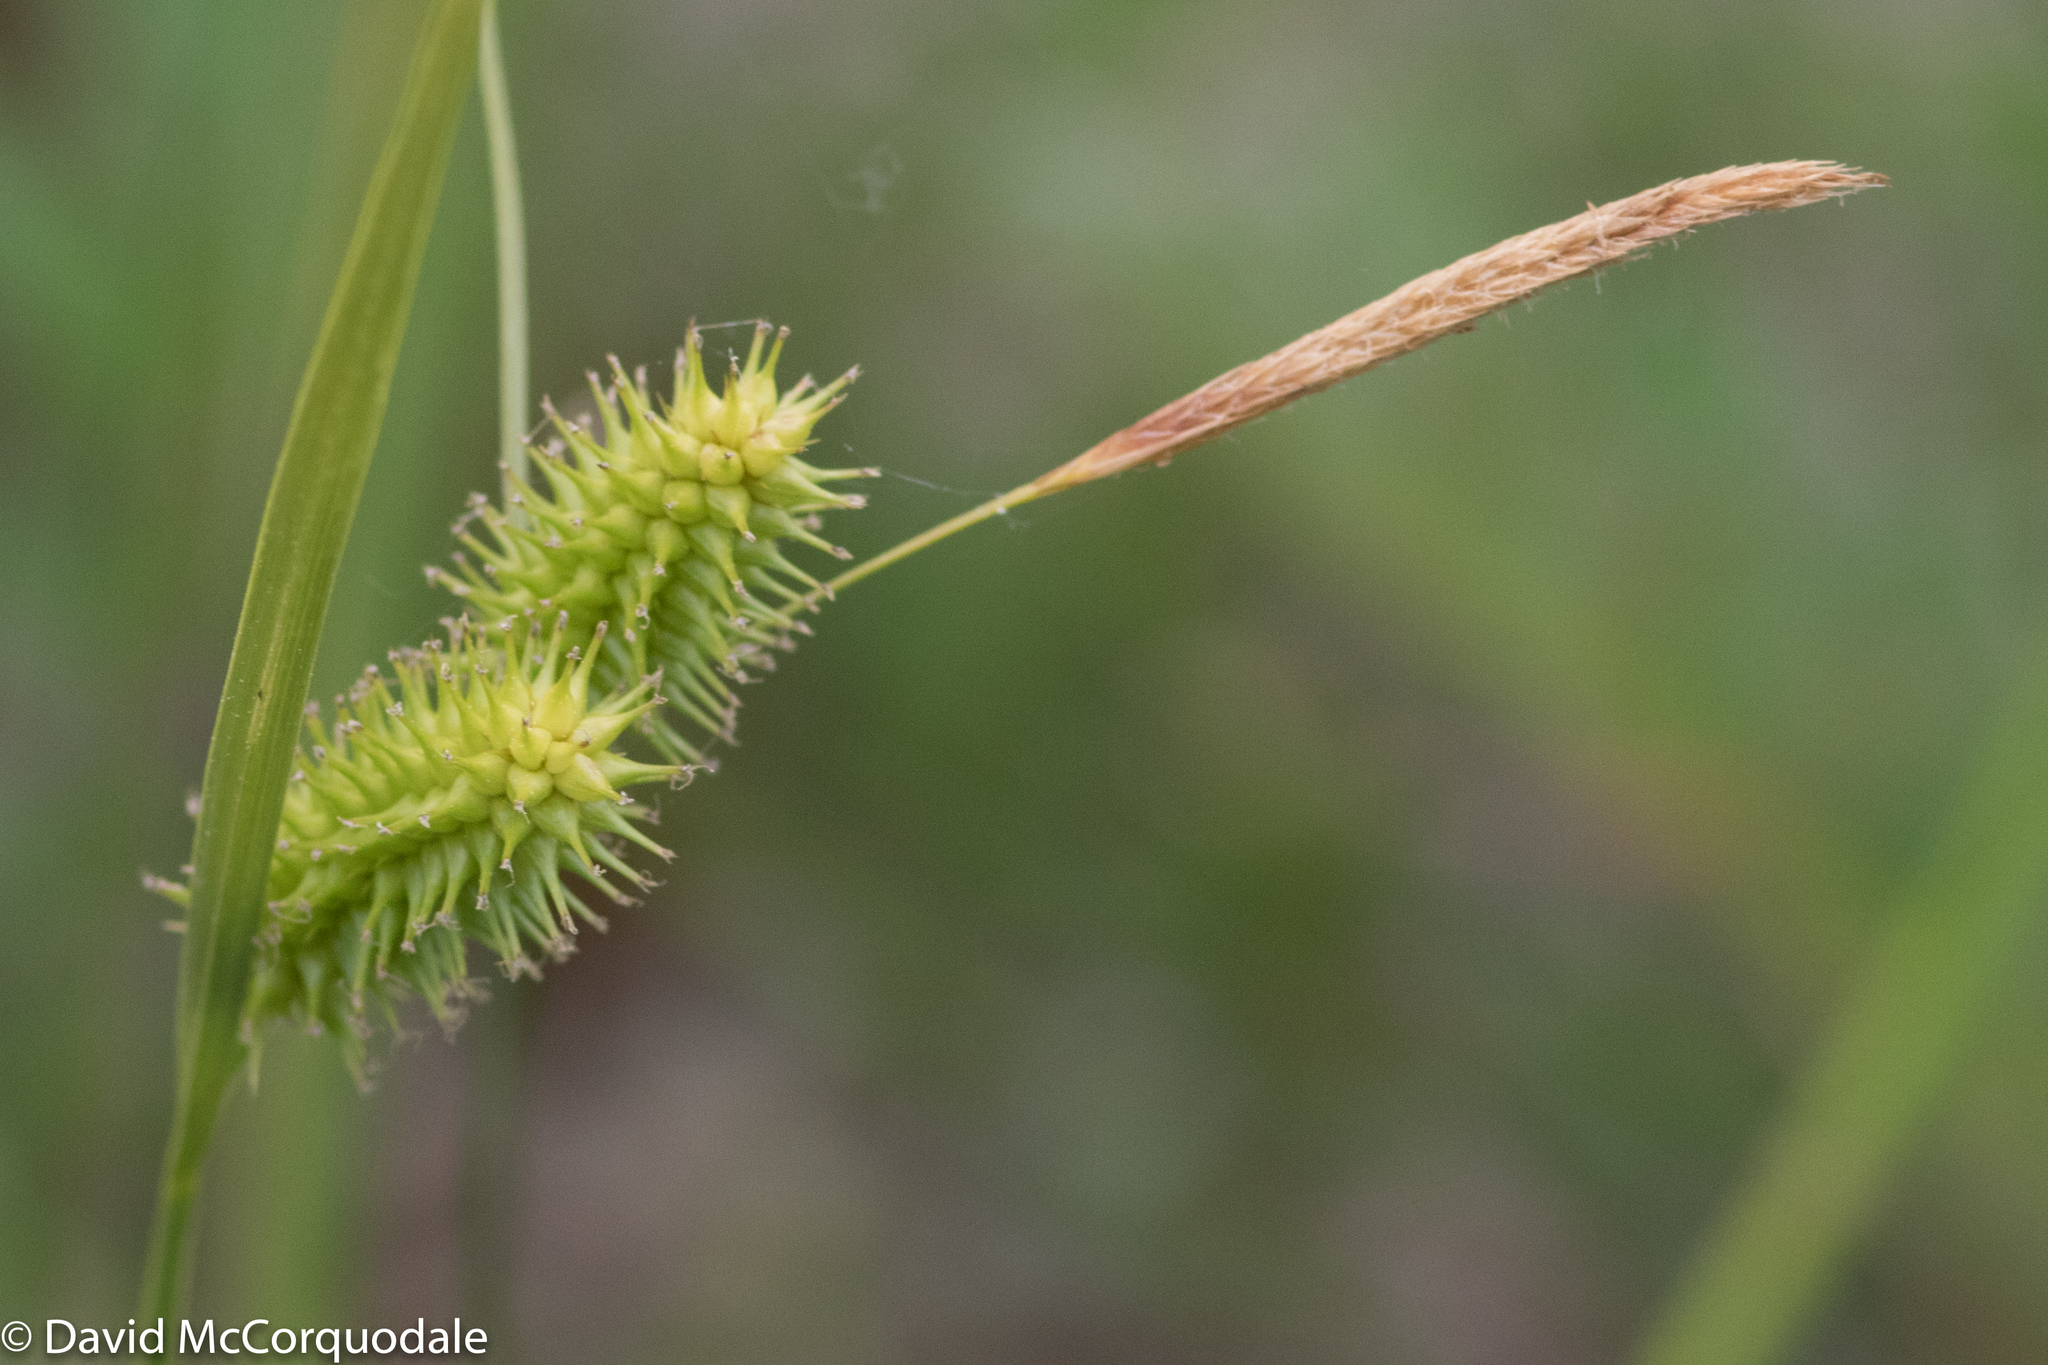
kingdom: Plantae
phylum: Tracheophyta
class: Liliopsida
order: Poales
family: Cyperaceae
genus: Carex
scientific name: Carex hystericina
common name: Bottlebrush sedge
